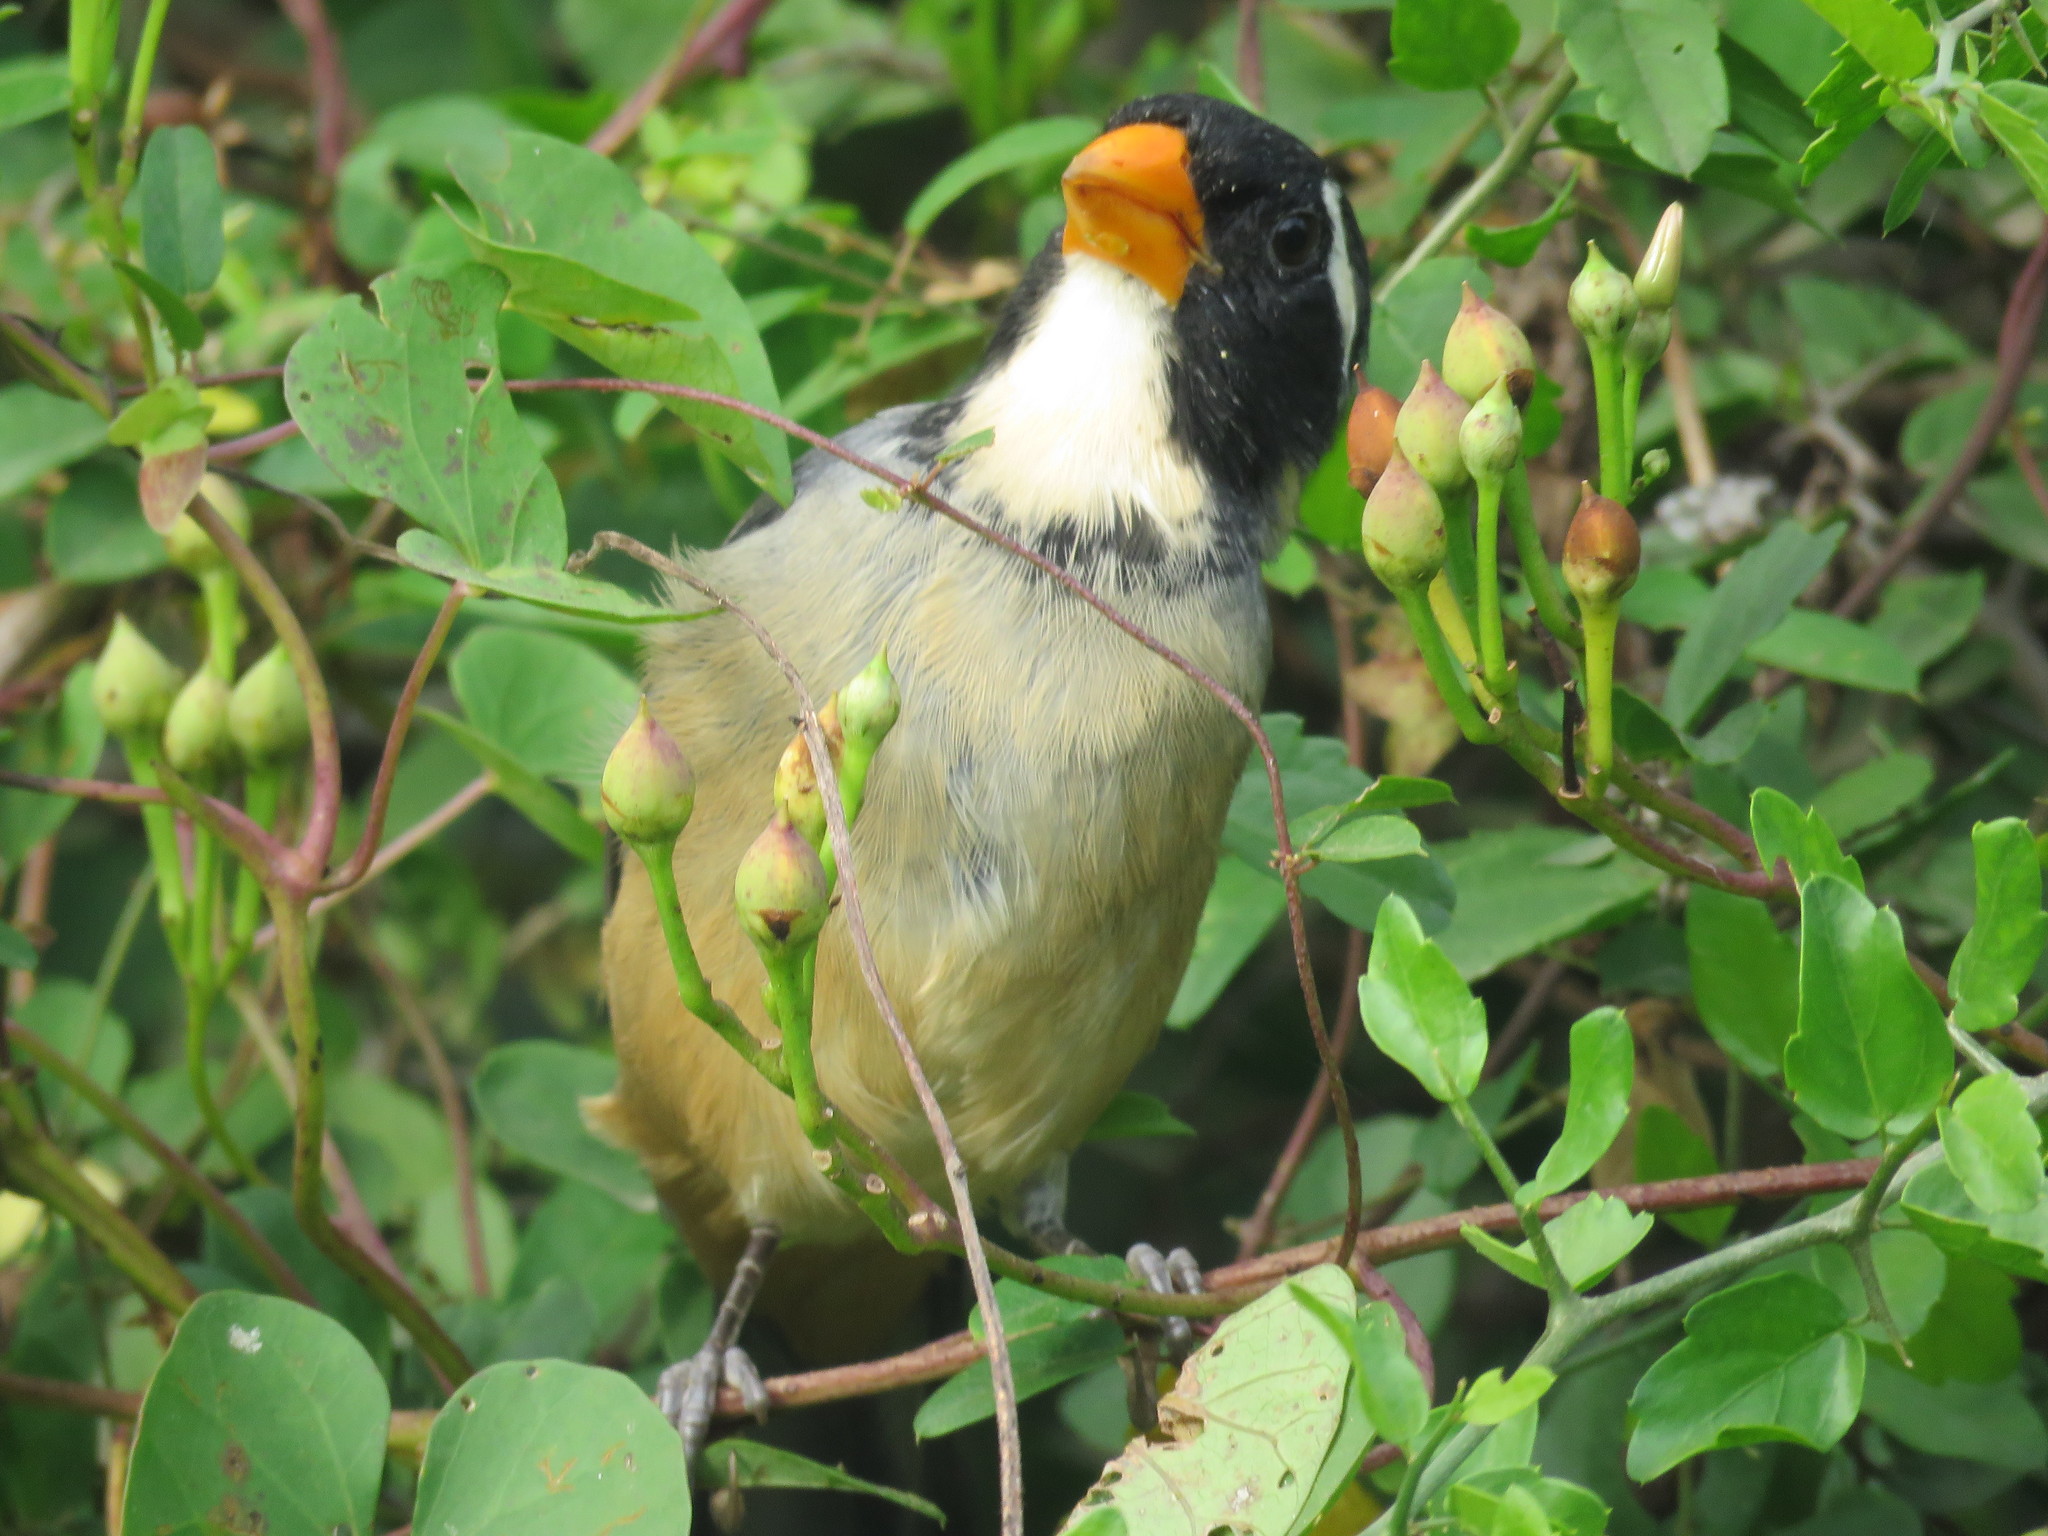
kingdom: Animalia
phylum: Chordata
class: Aves
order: Passeriformes
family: Thraupidae
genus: Saltator
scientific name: Saltator aurantiirostris
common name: Golden-billed saltator
